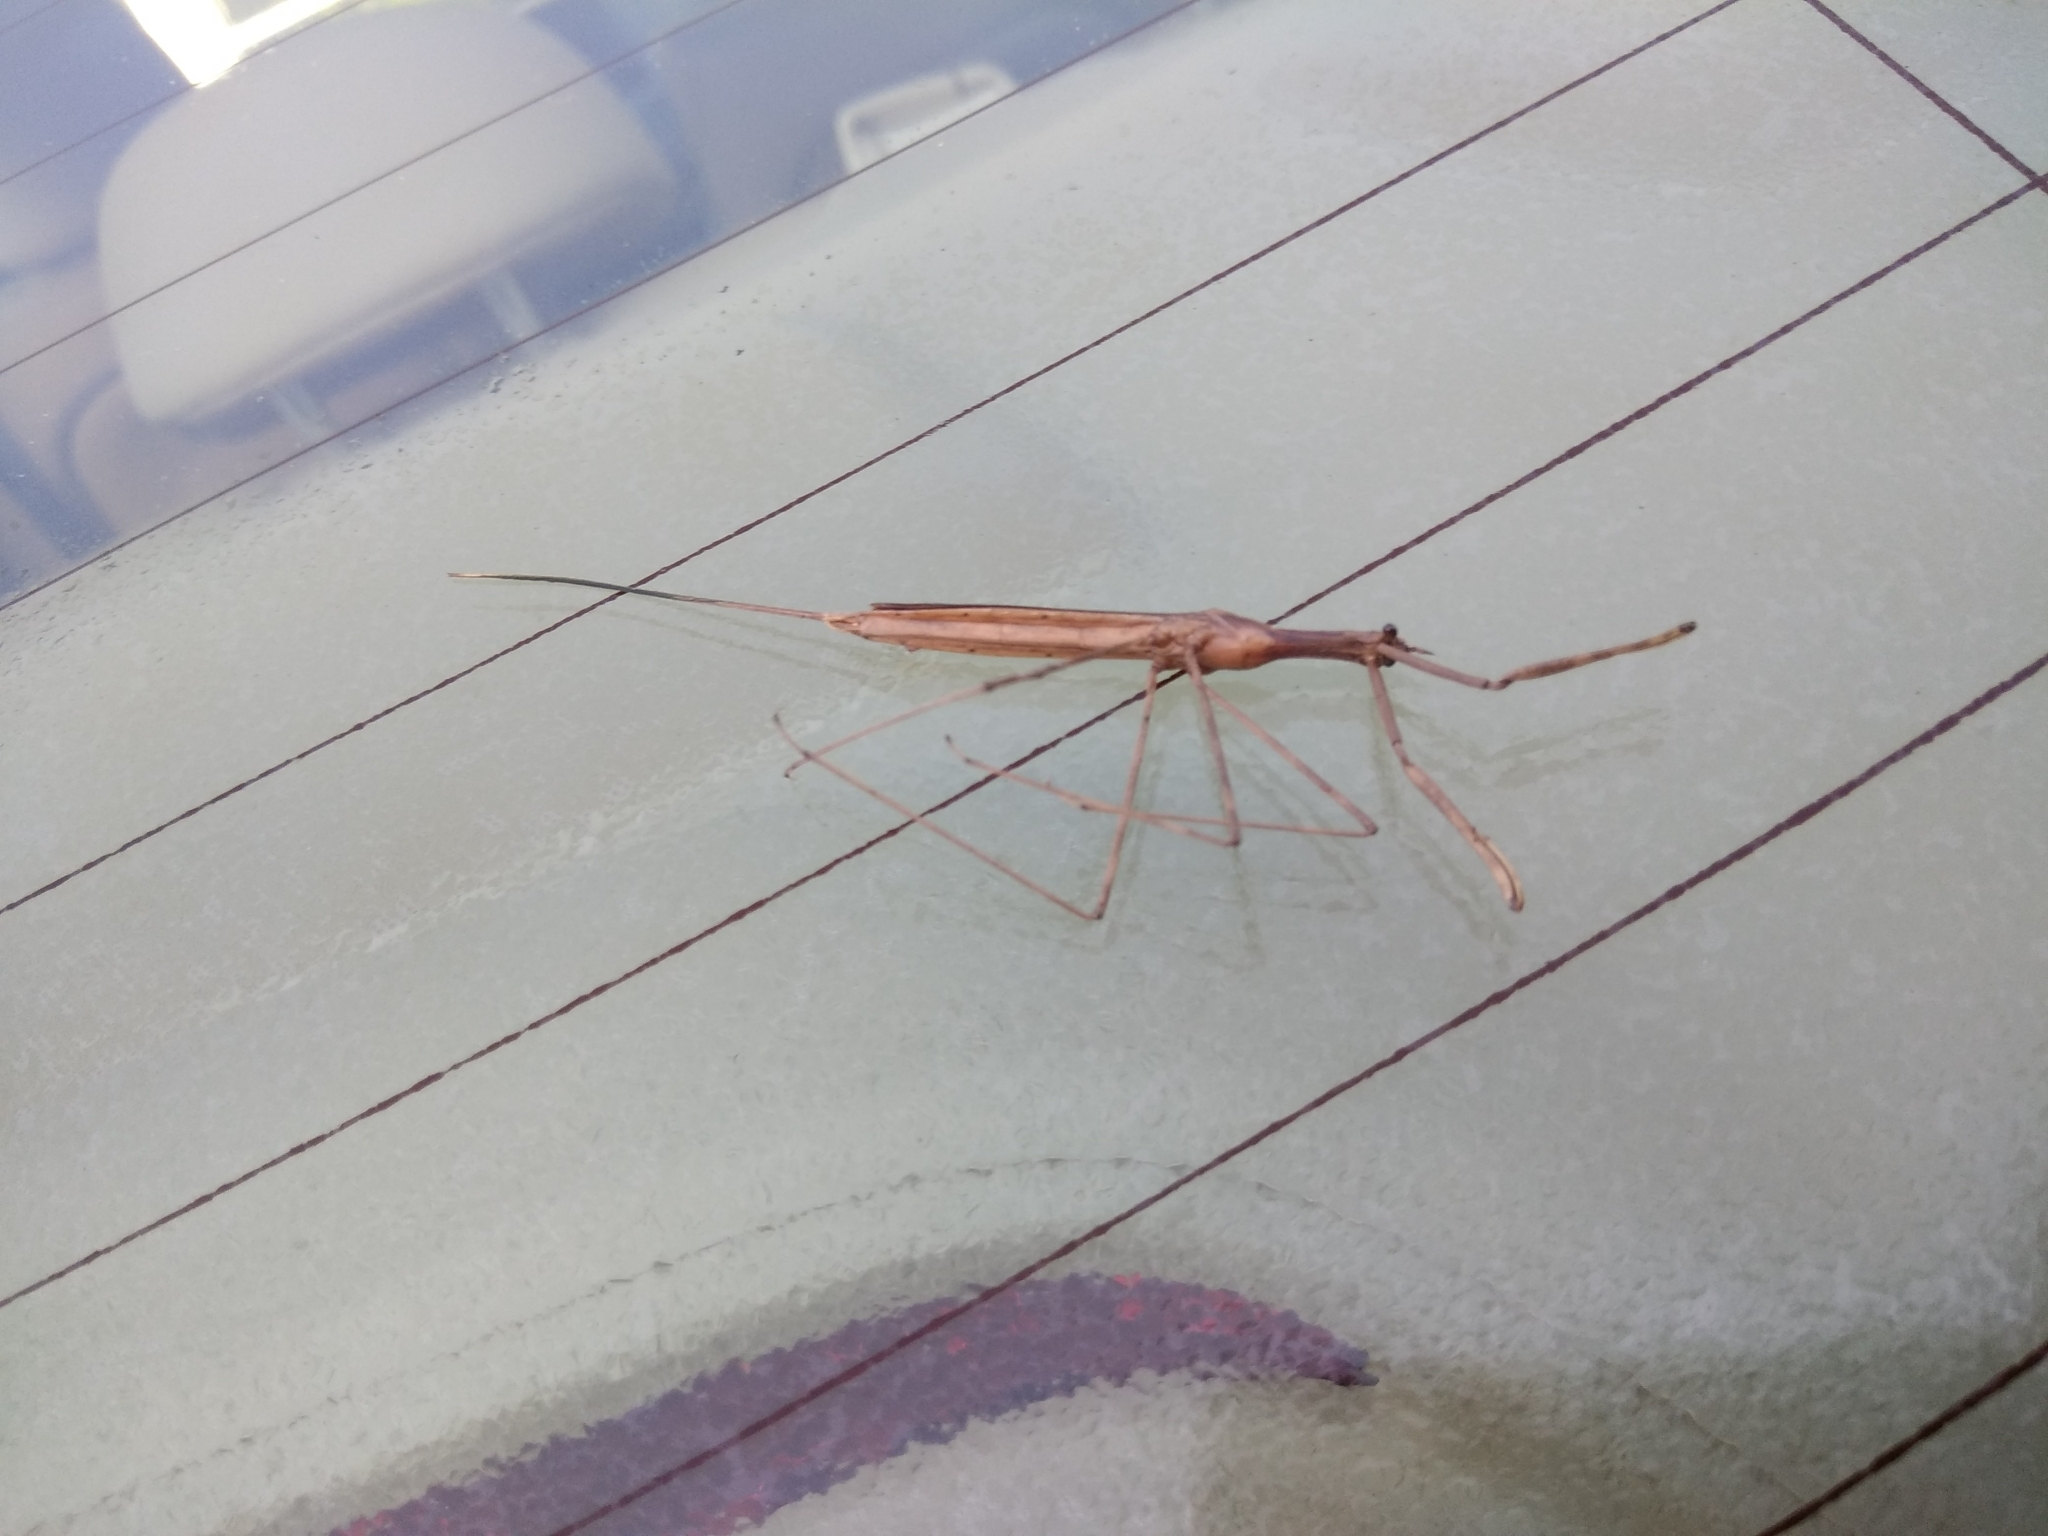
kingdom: Animalia
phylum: Arthropoda
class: Insecta
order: Hemiptera
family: Nepidae
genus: Ranatra
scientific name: Ranatra
